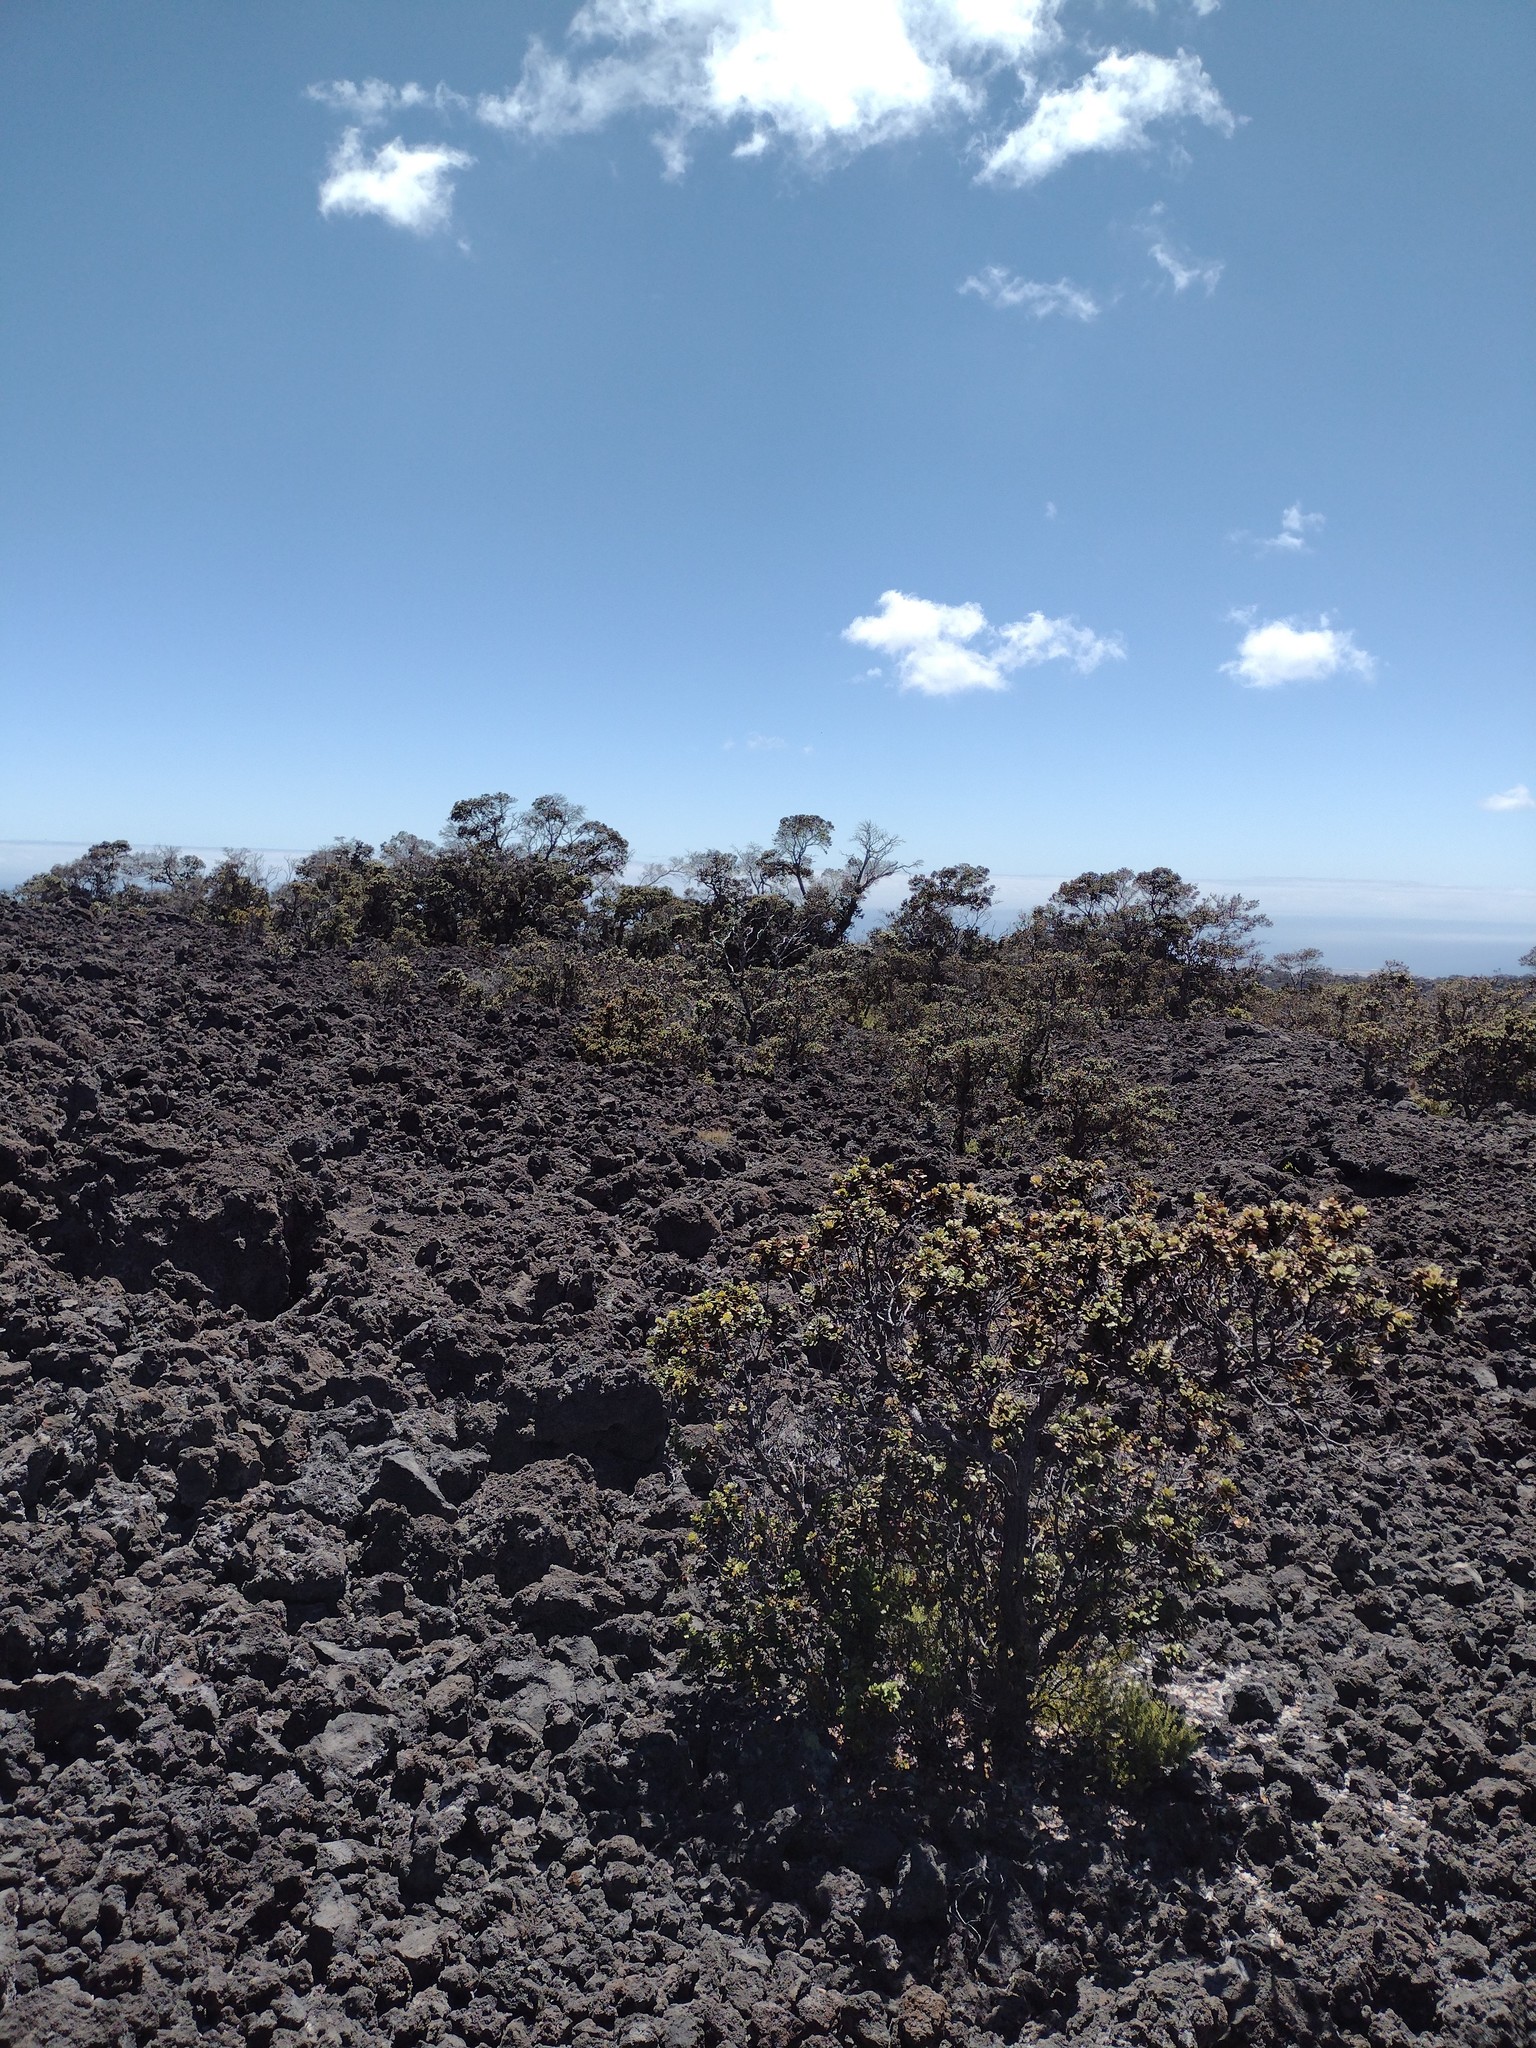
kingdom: Plantae
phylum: Tracheophyta
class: Magnoliopsida
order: Myrtales
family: Myrtaceae
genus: Metrosideros
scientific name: Metrosideros polymorpha
